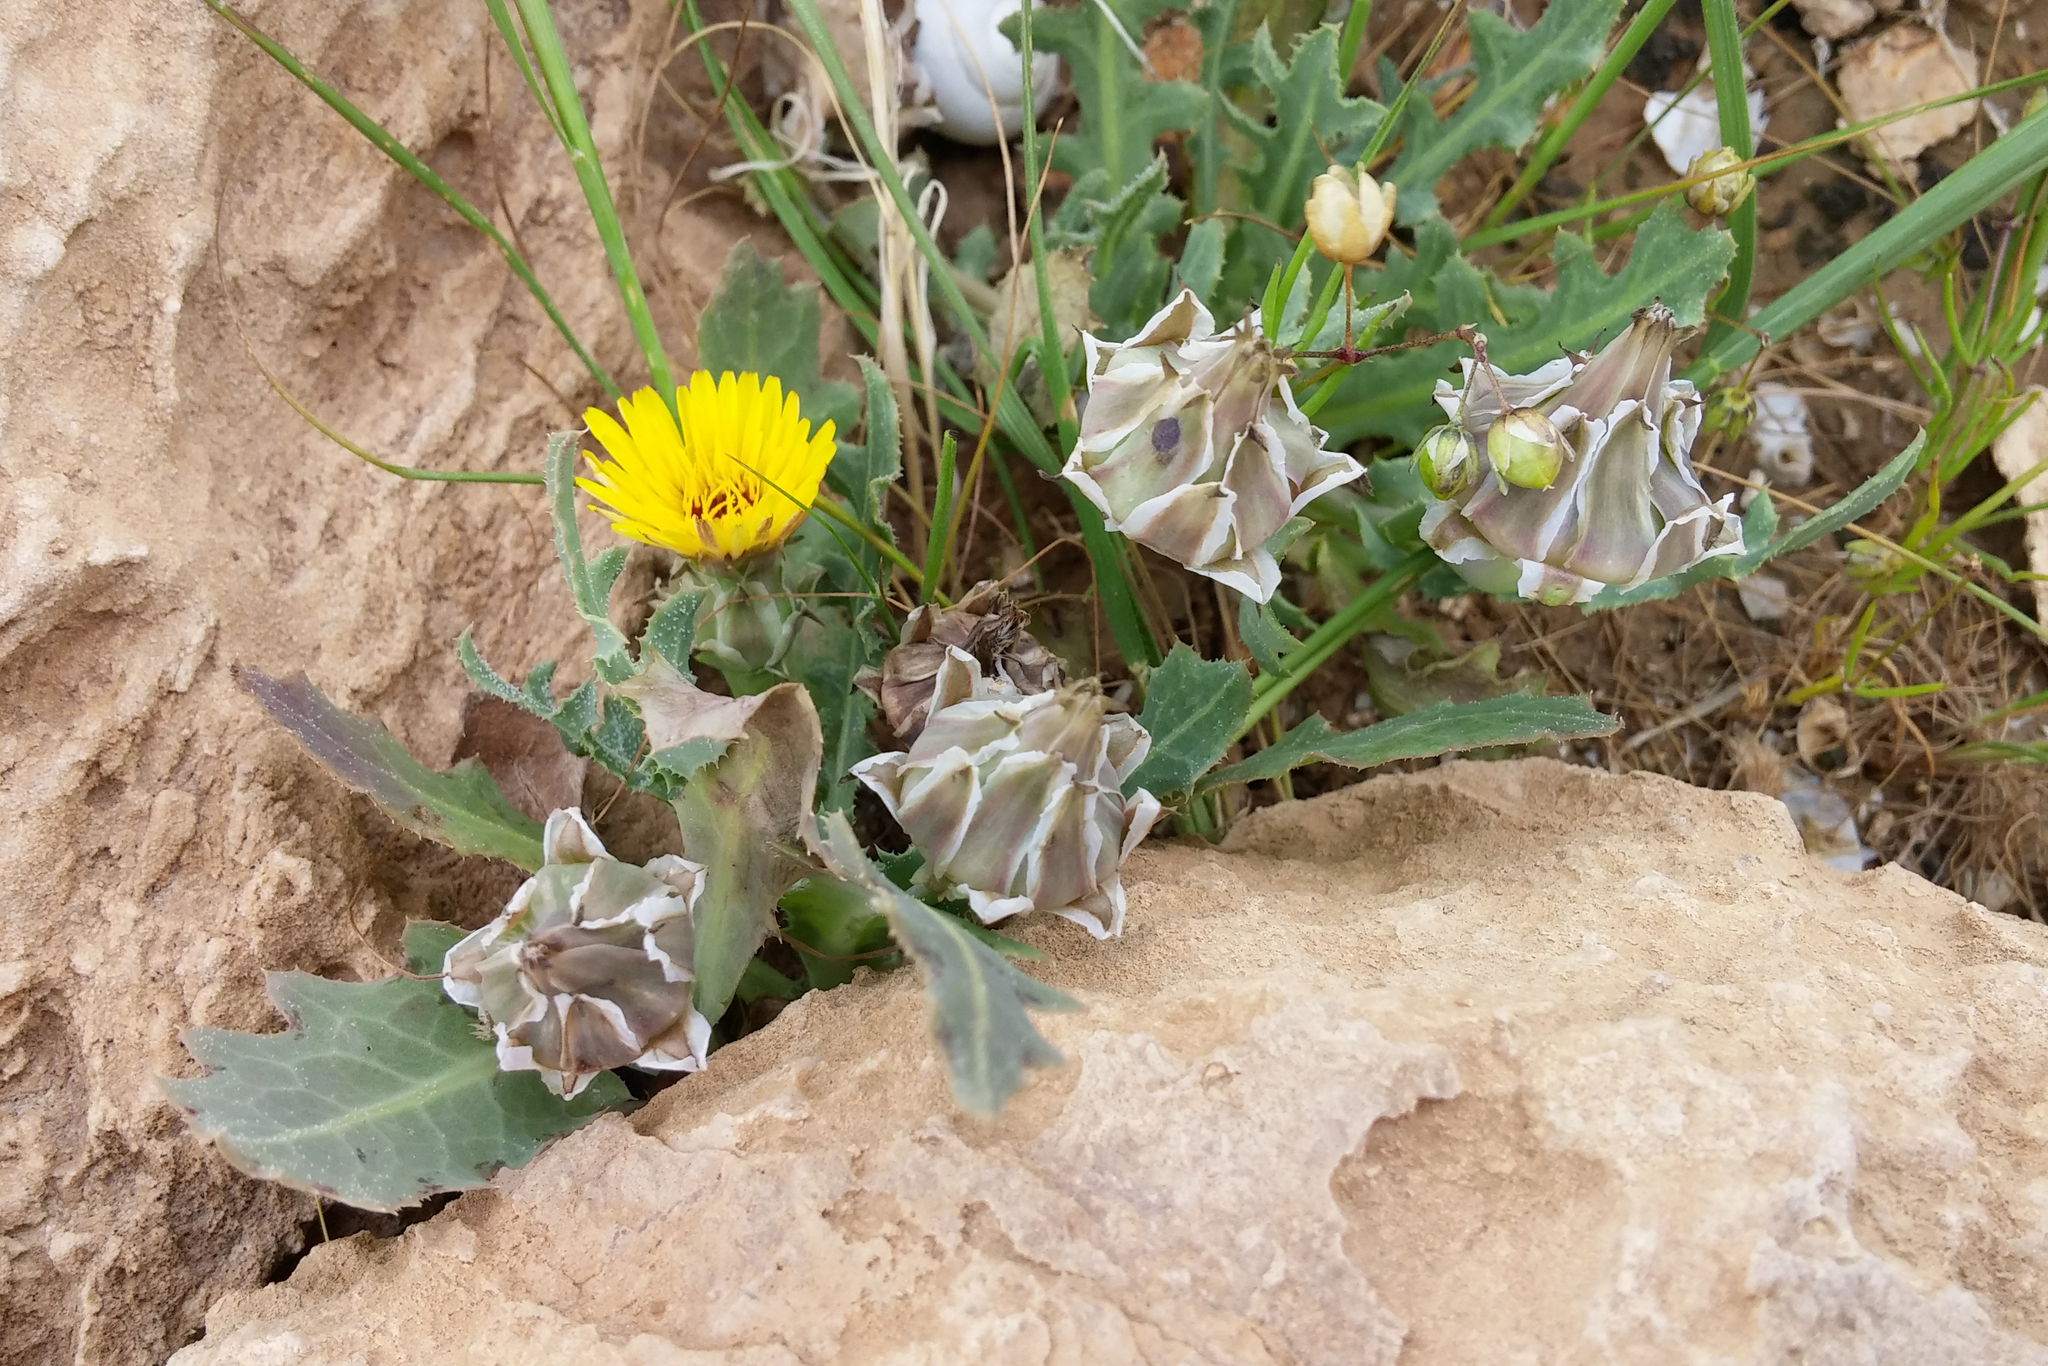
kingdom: Plantae
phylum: Tracheophyta
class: Magnoliopsida
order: Asterales
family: Asteraceae
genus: Reichardia
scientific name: Reichardia tingitana
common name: Reichardia
